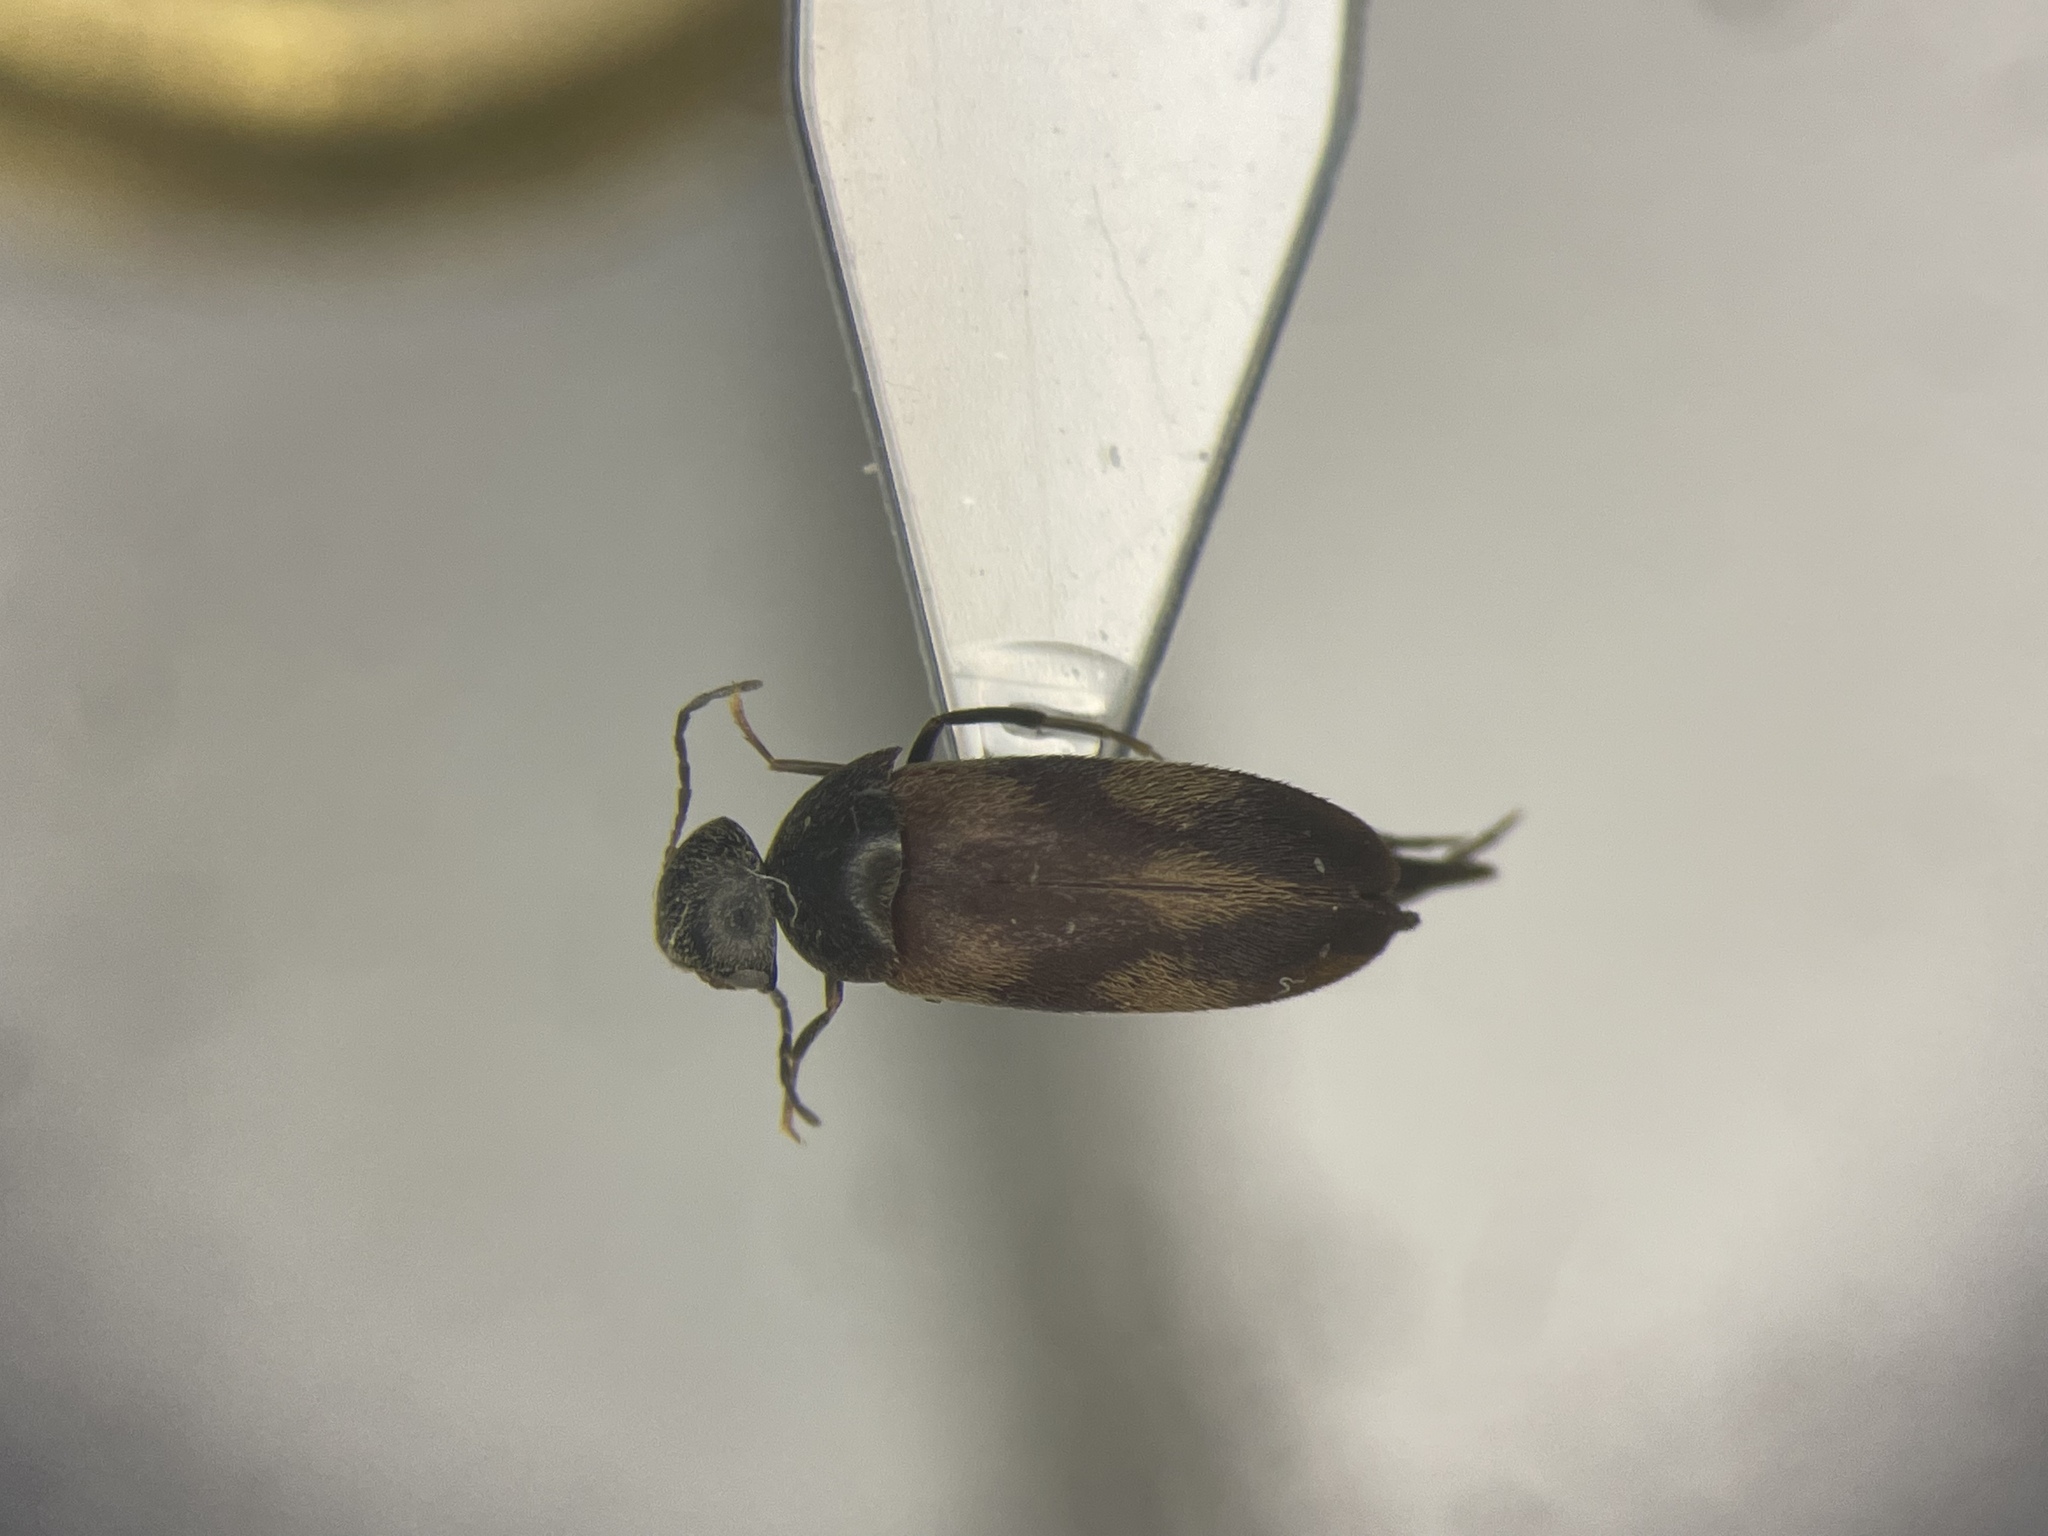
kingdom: Animalia
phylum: Arthropoda
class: Insecta
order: Coleoptera
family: Mordellidae
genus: Falsomordellistena
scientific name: Falsomordellistena discolor
